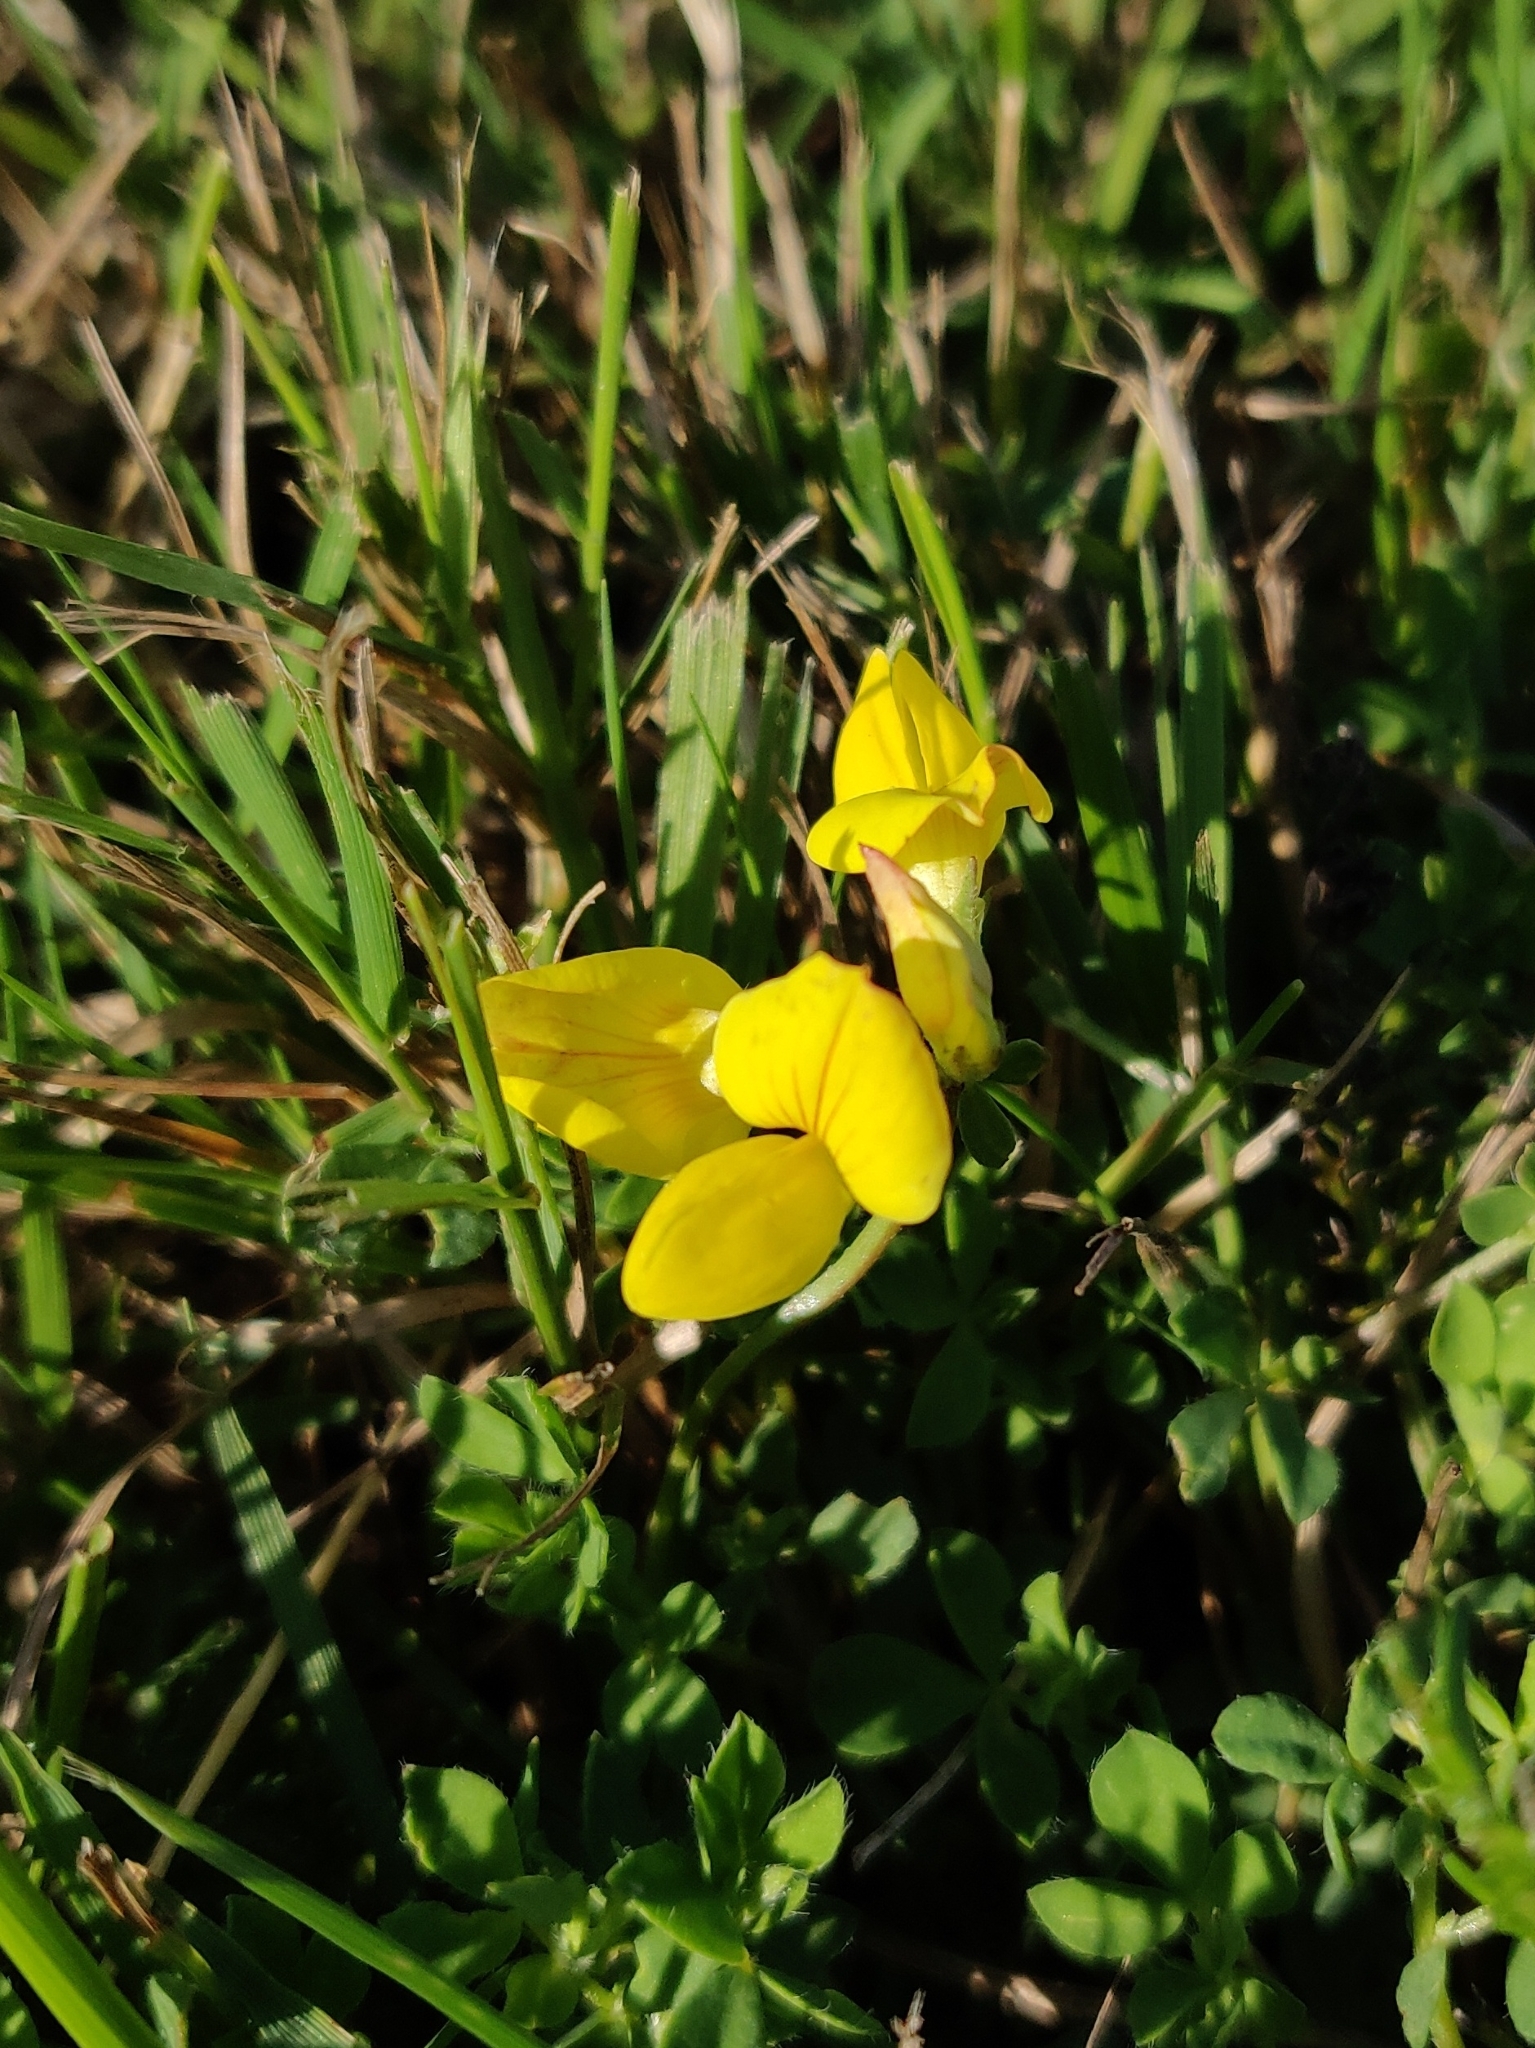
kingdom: Plantae
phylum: Tracheophyta
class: Magnoliopsida
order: Fabales
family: Fabaceae
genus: Lotus
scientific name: Lotus corniculatus
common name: Common bird's-foot-trefoil
